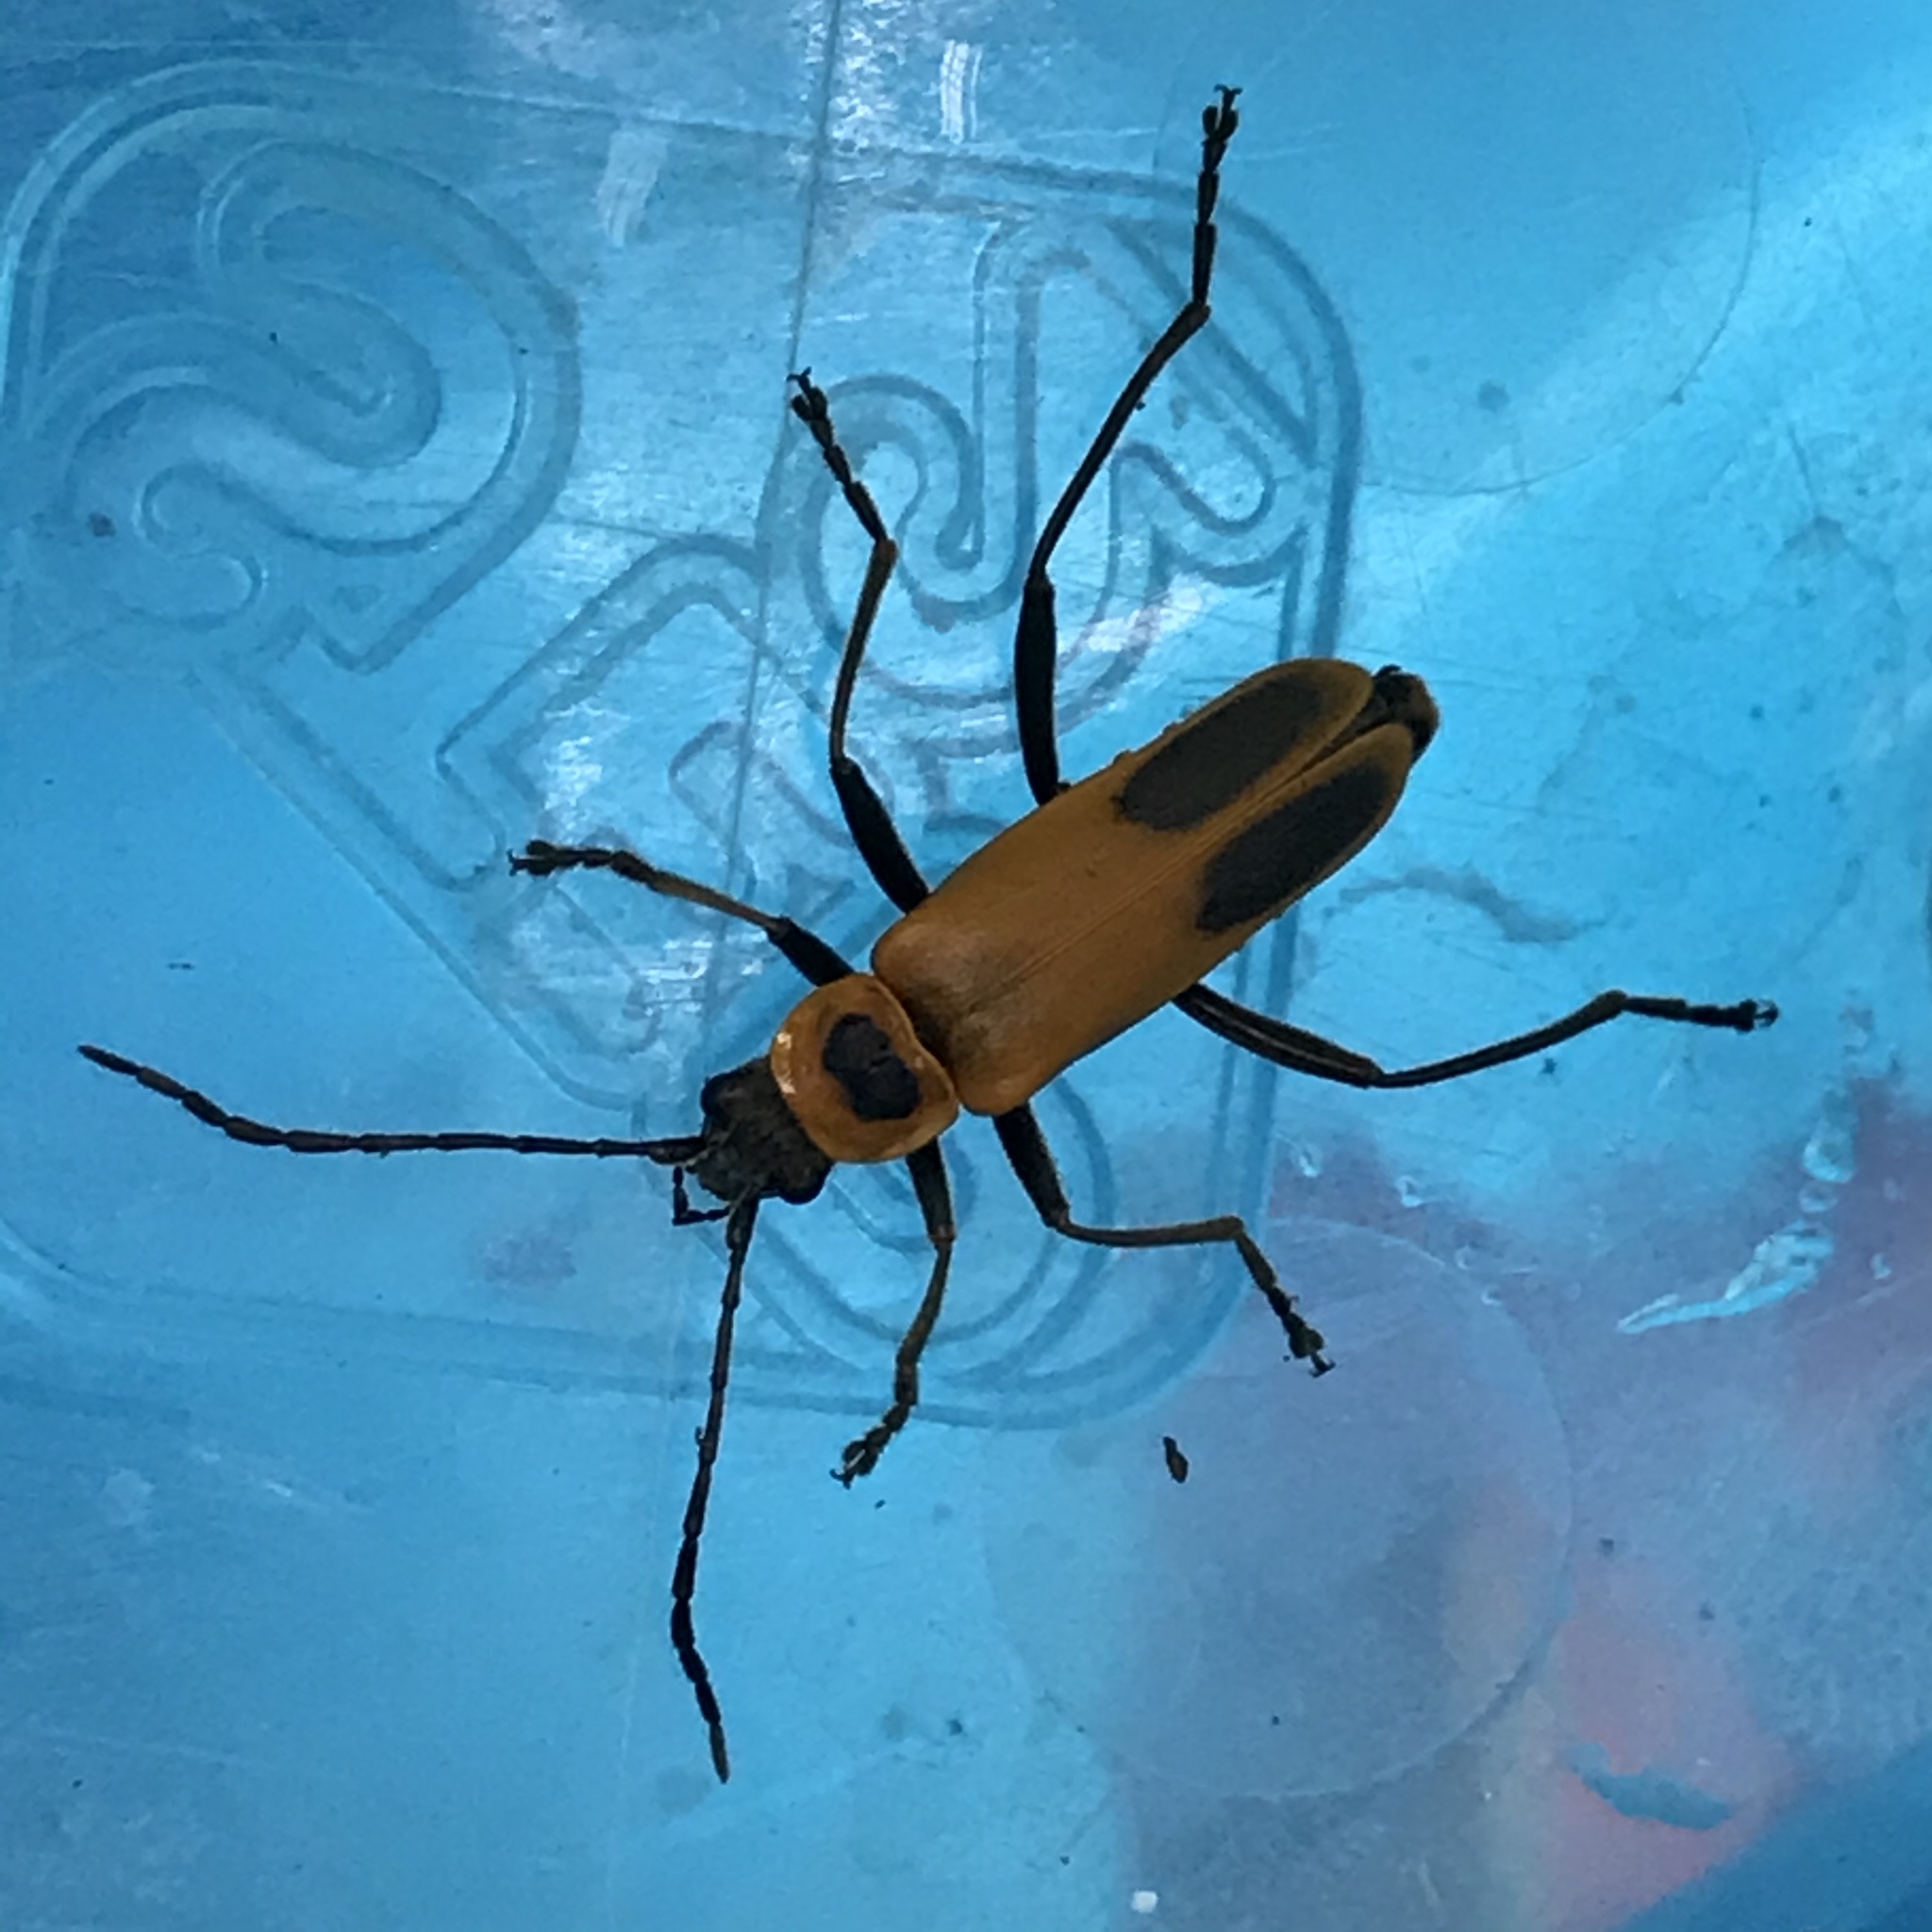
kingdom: Animalia
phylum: Arthropoda
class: Insecta
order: Coleoptera
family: Cantharidae
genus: Chauliognathus
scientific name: Chauliognathus pensylvanicus
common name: Goldenrod soldier beetle
